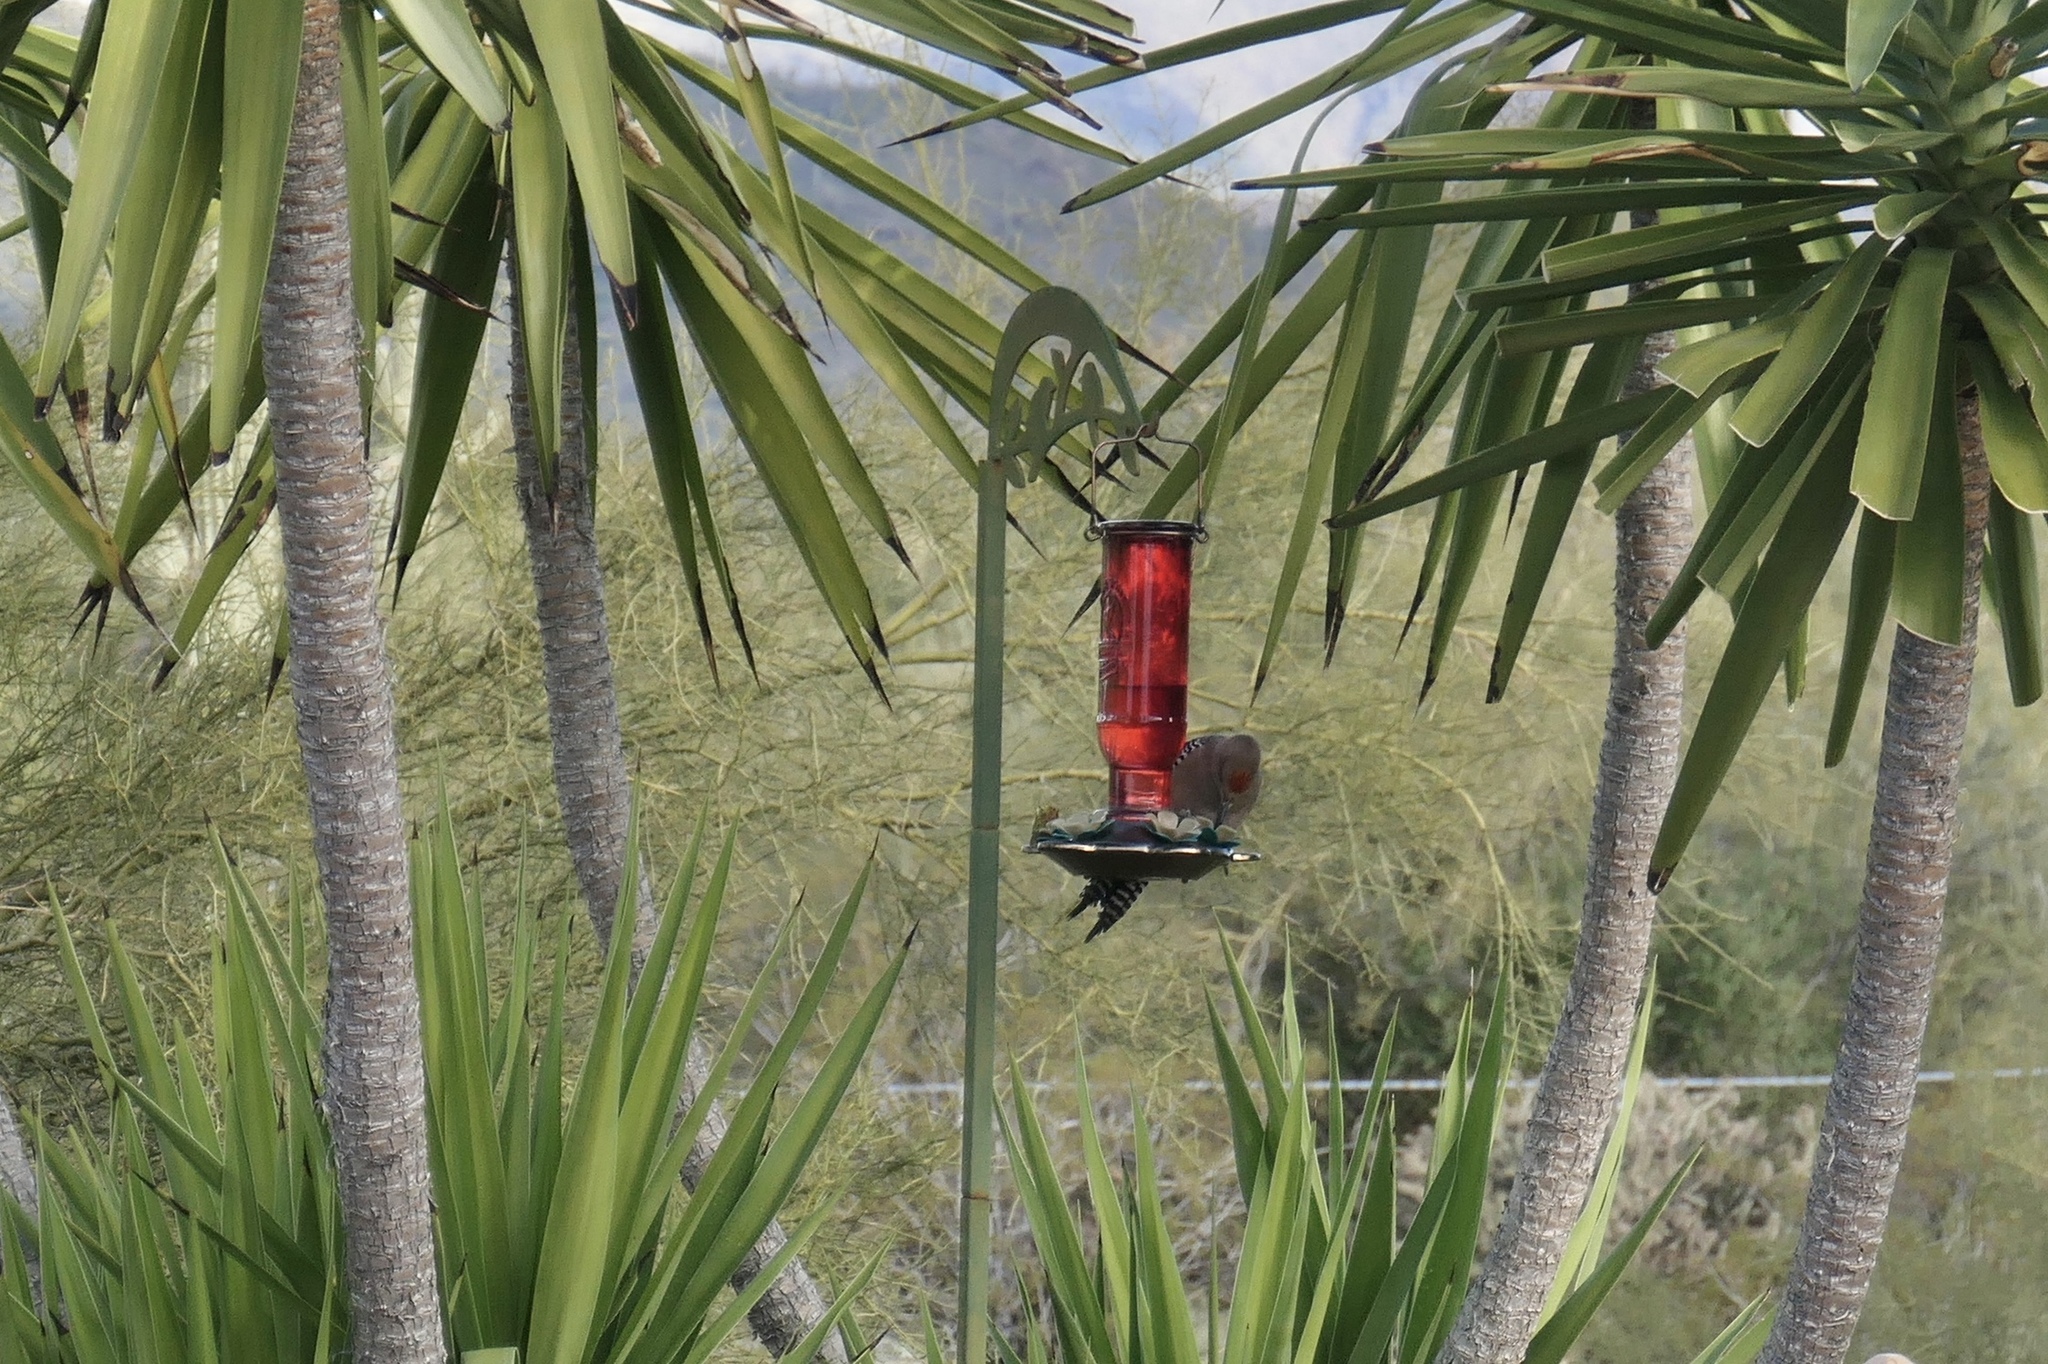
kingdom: Animalia
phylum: Chordata
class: Aves
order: Piciformes
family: Picidae
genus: Melanerpes
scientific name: Melanerpes uropygialis
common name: Gila woodpecker
